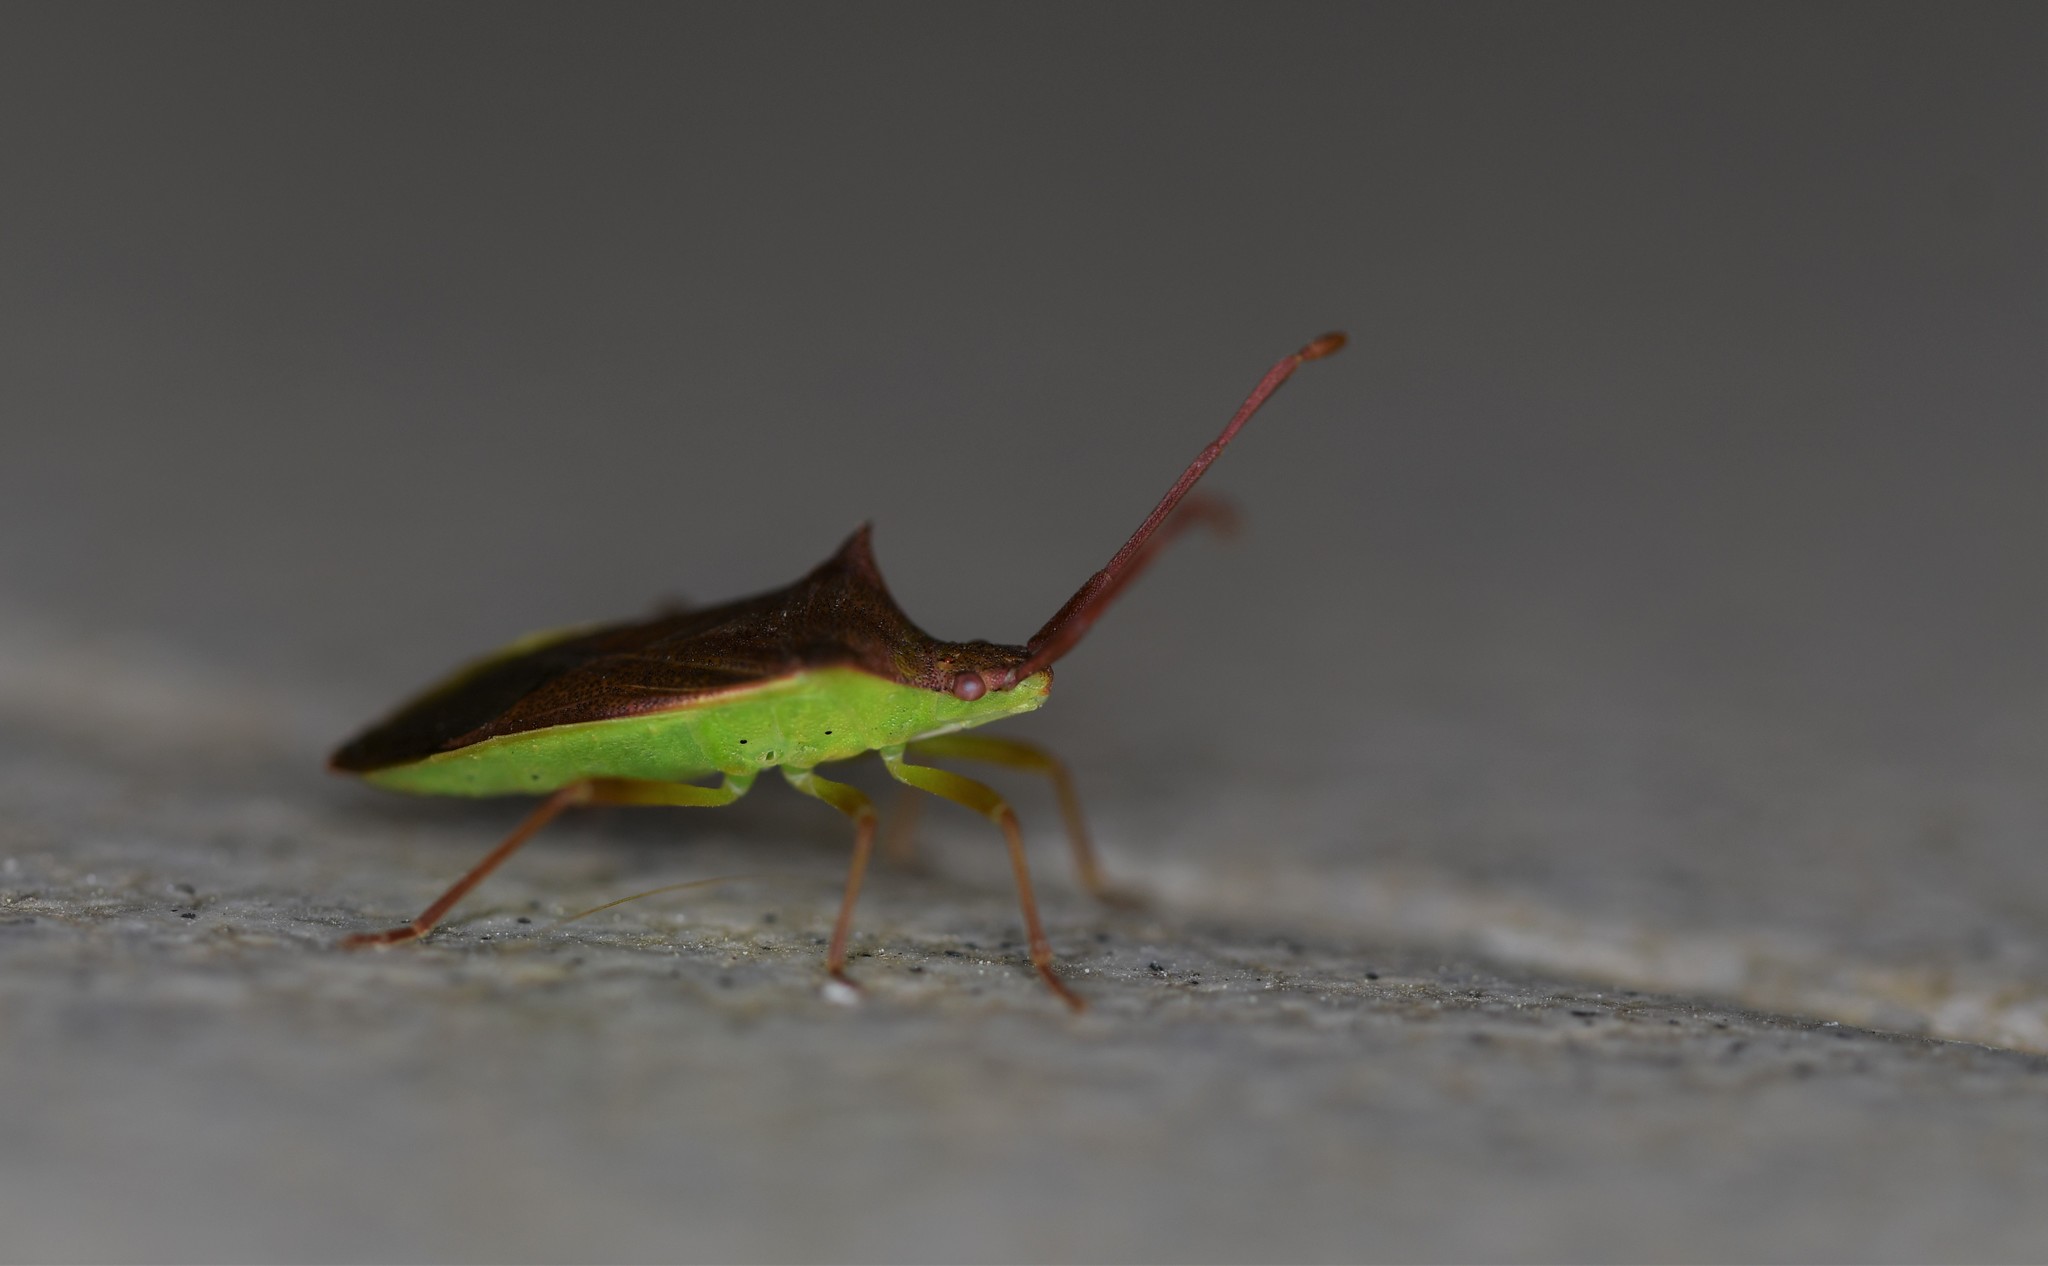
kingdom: Animalia
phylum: Arthropoda
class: Insecta
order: Hemiptera
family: Coreidae
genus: Gonocerus
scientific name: Gonocerus insidiator
